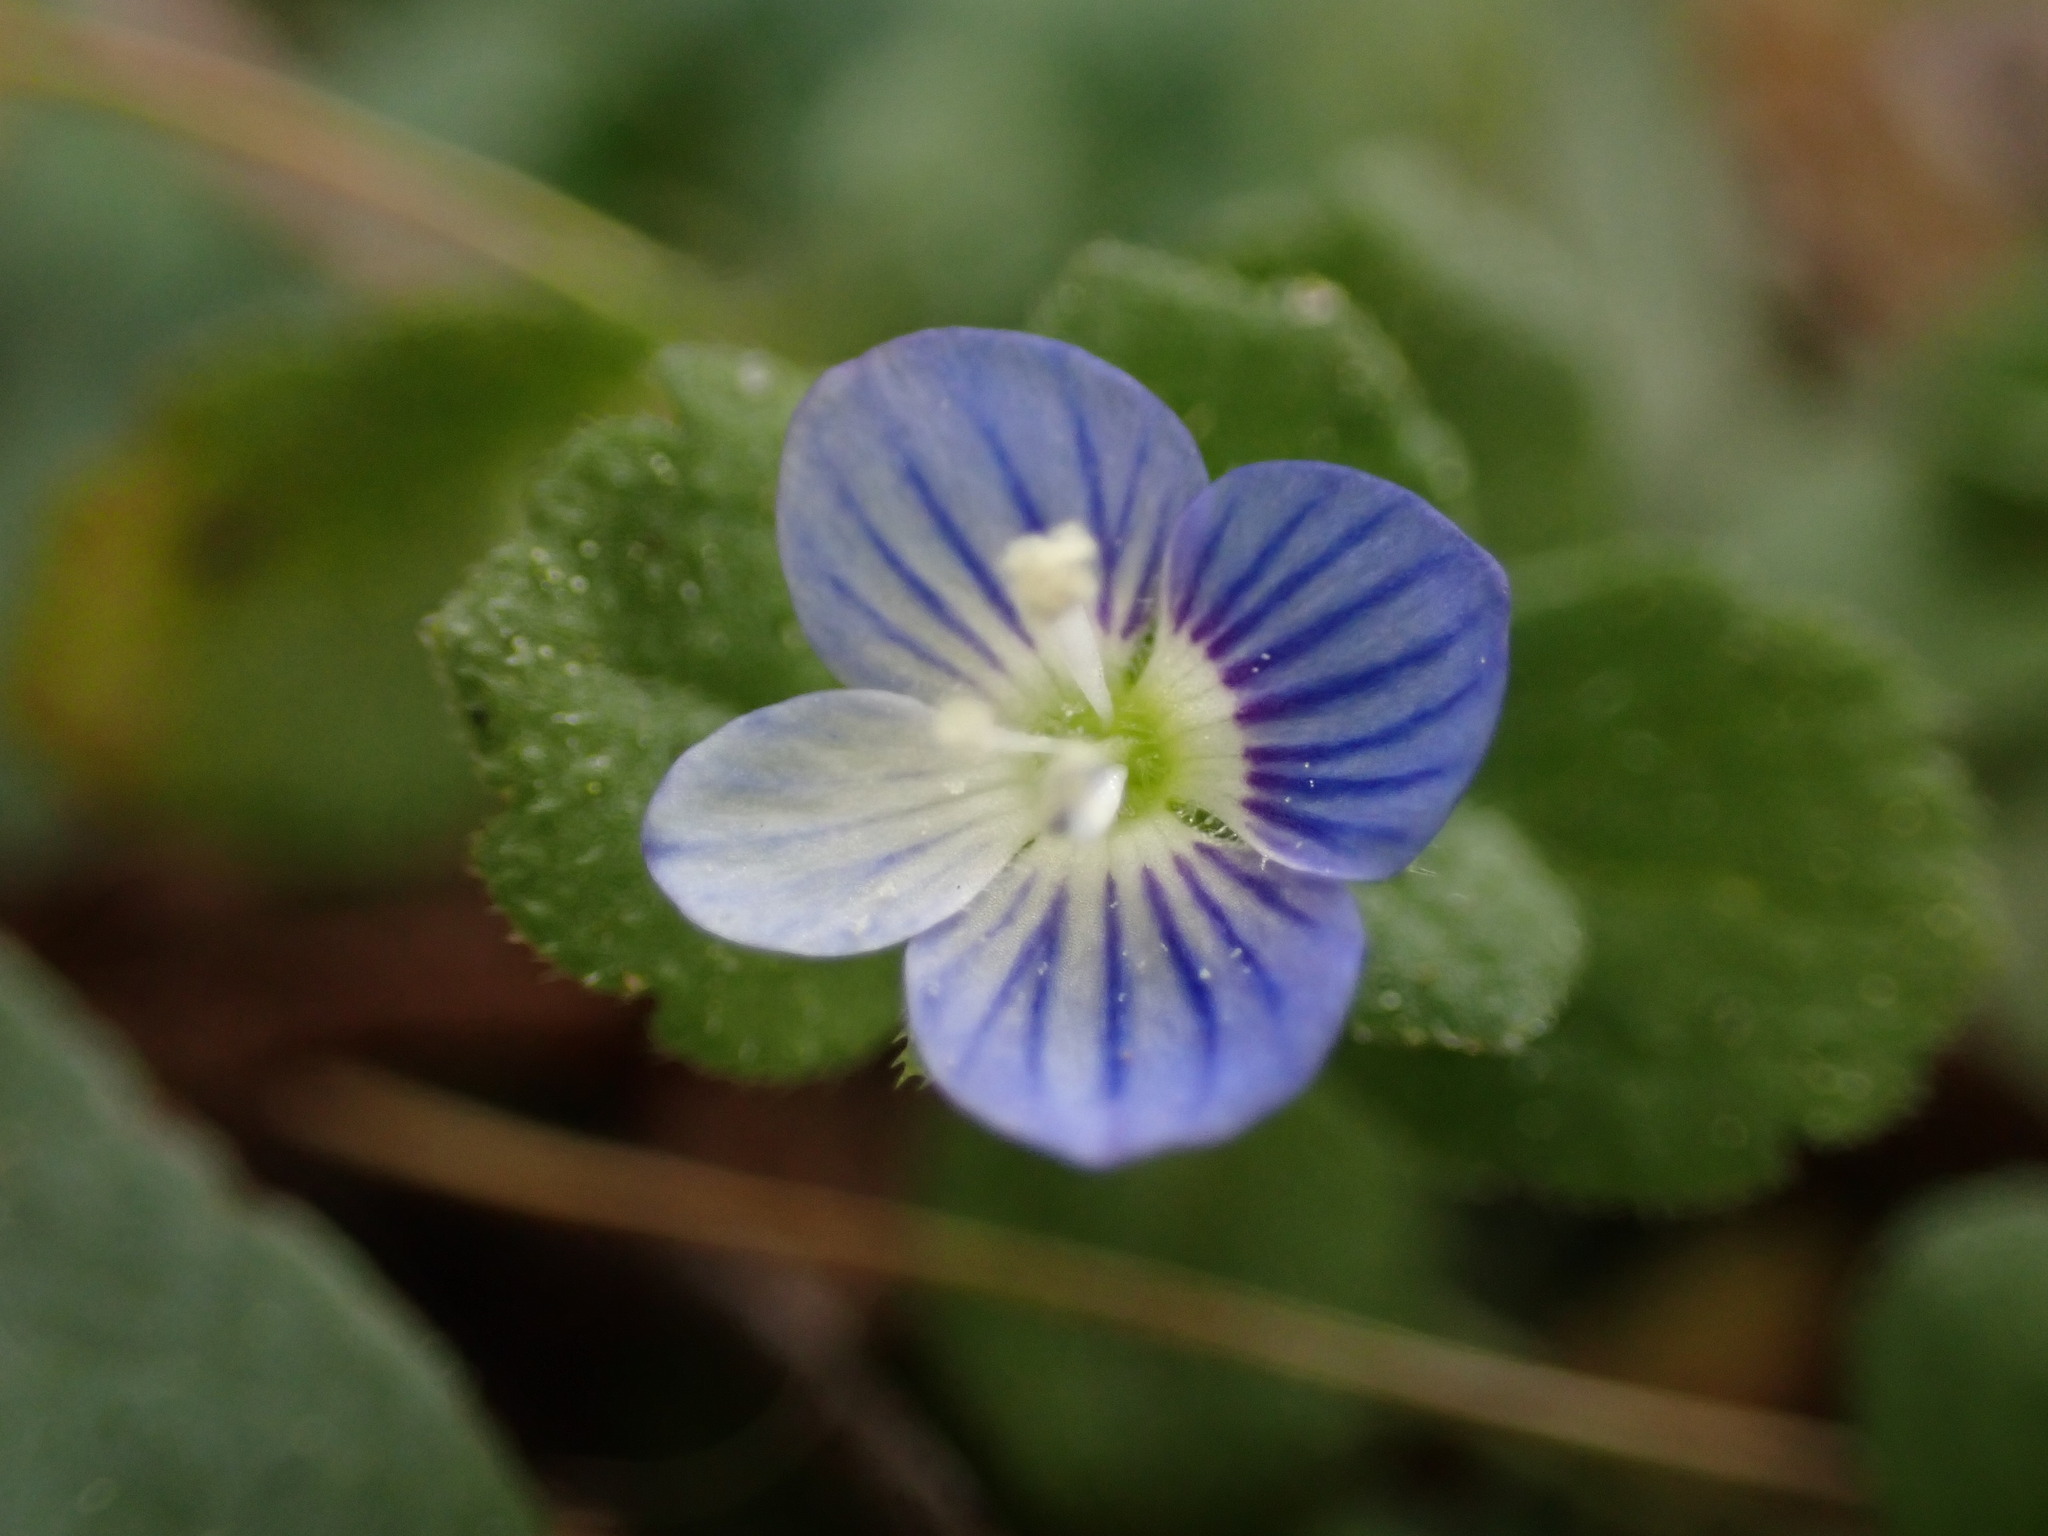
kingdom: Plantae
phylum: Tracheophyta
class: Magnoliopsida
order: Lamiales
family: Plantaginaceae
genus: Veronica
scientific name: Veronica persica
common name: Common field-speedwell
